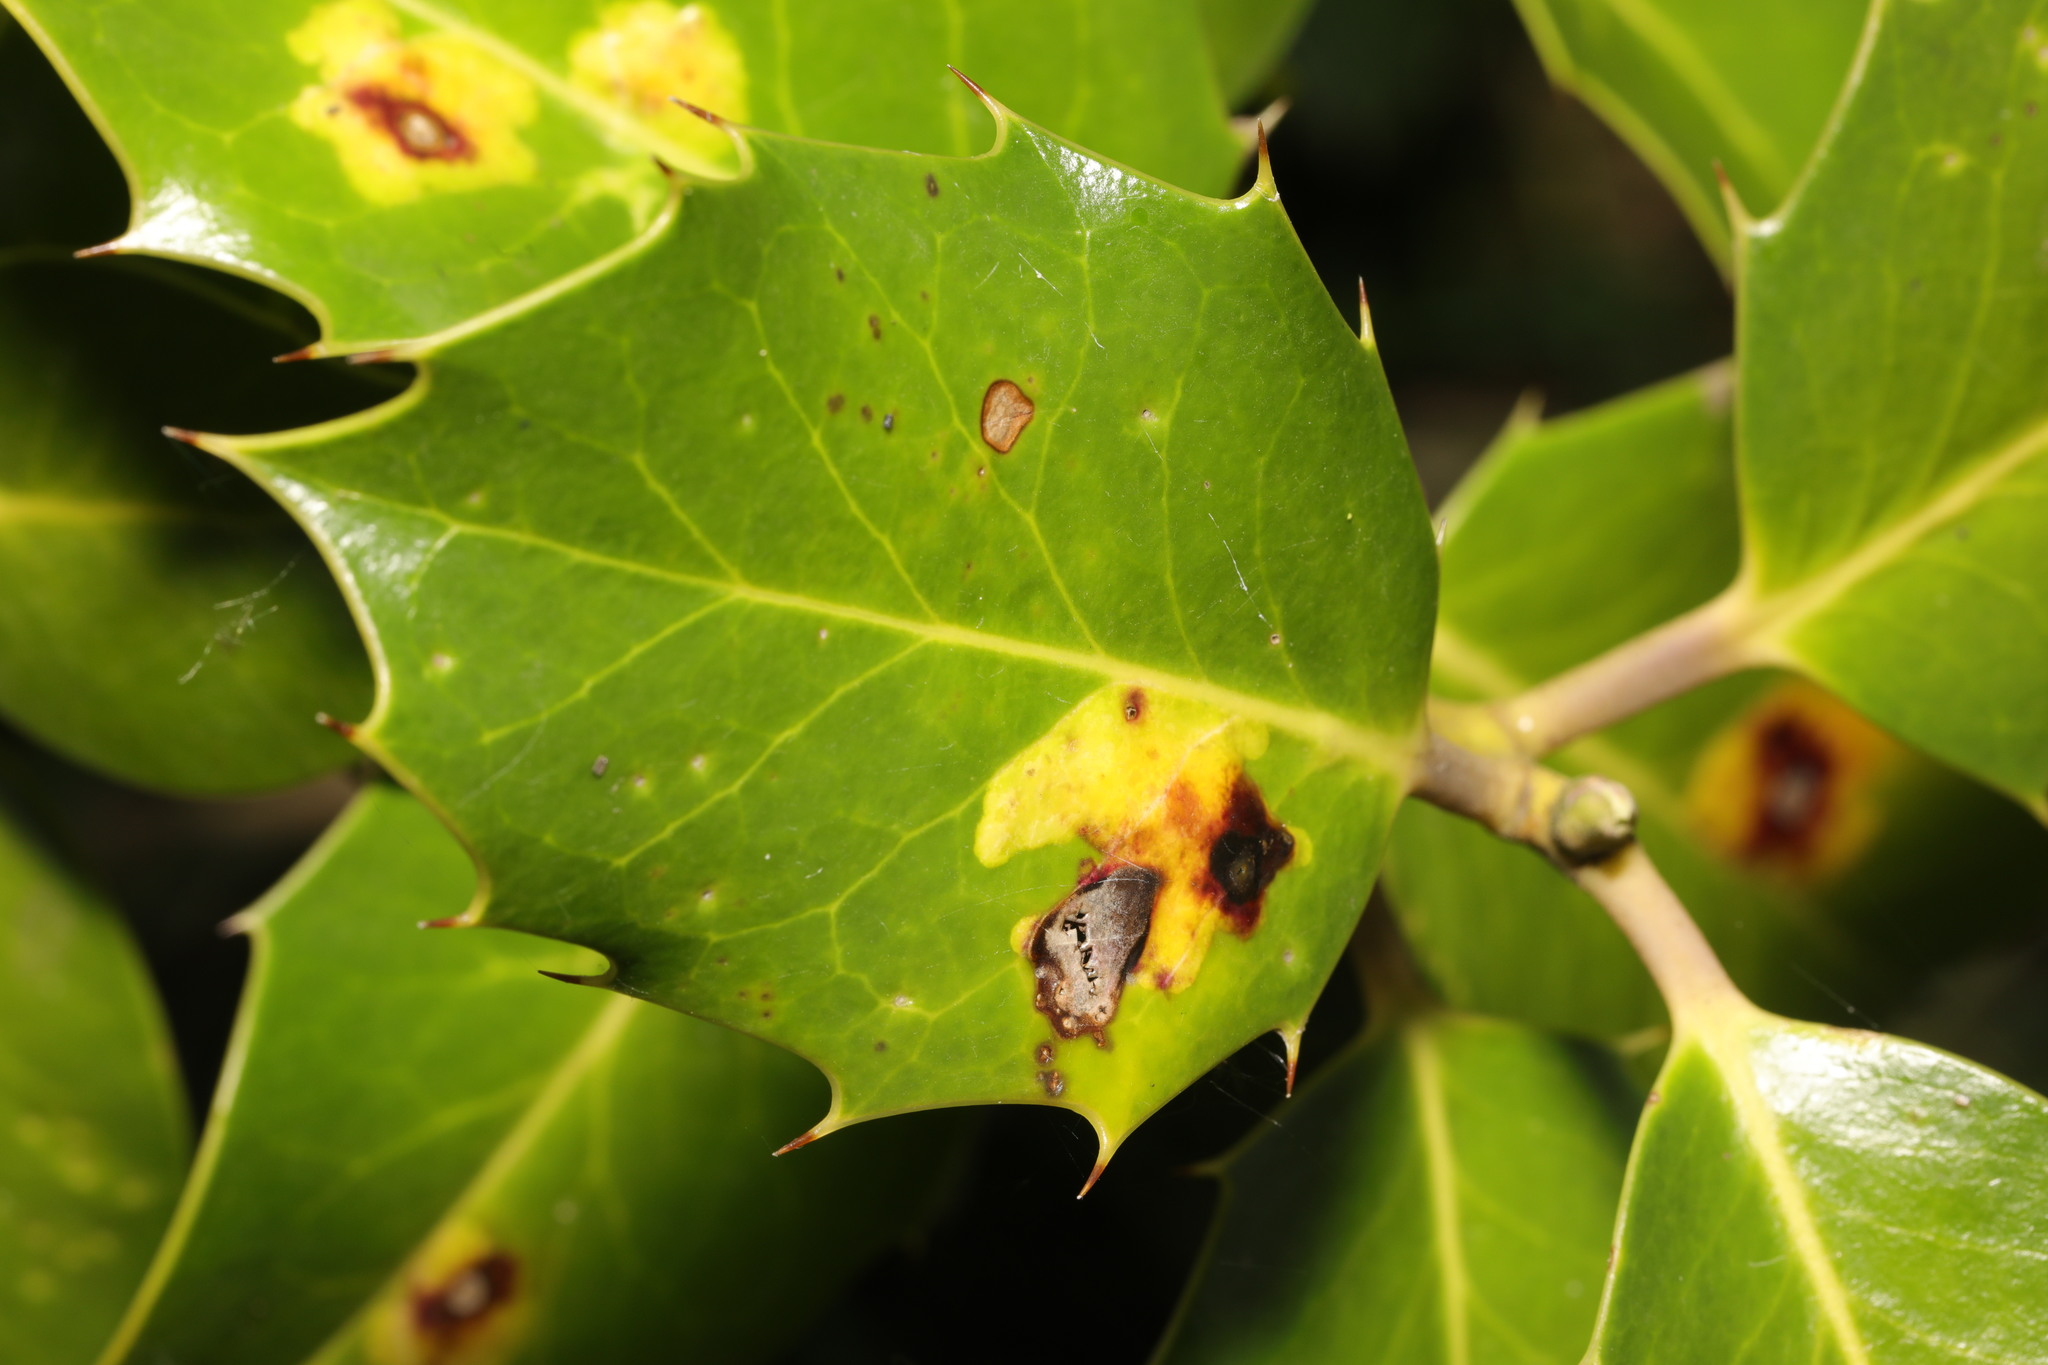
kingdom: Animalia
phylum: Arthropoda
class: Insecta
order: Diptera
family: Agromyzidae
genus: Phytomyza
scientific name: Phytomyza ilicis
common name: Holly leafminer
